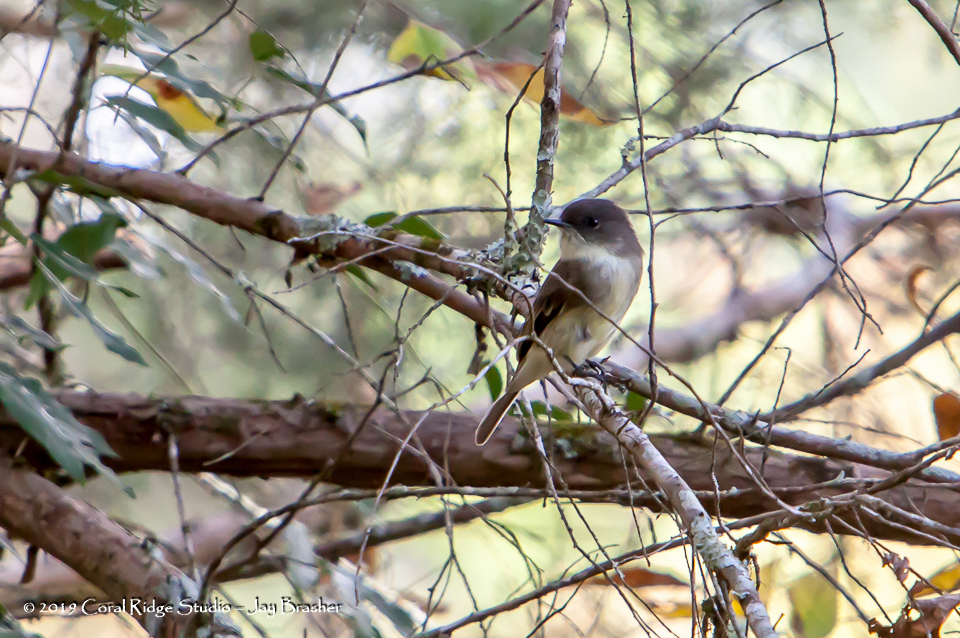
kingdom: Animalia
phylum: Chordata
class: Aves
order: Passeriformes
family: Tyrannidae
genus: Sayornis
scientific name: Sayornis phoebe
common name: Eastern phoebe
